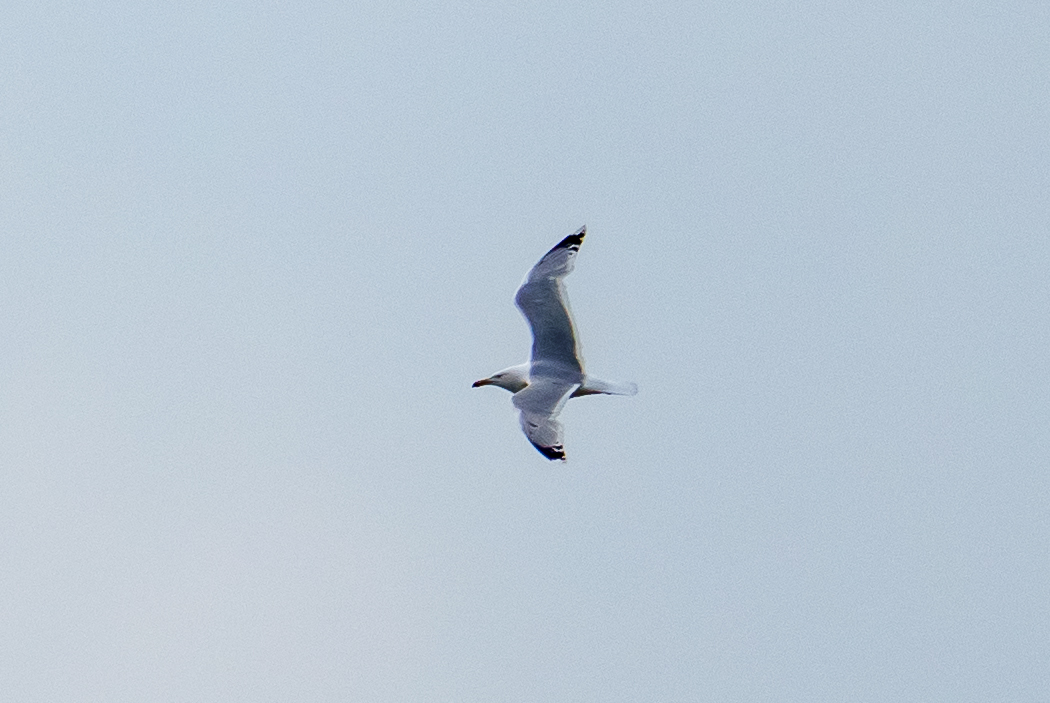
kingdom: Animalia
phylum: Chordata
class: Aves
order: Charadriiformes
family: Laridae
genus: Larus
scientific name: Larus cachinnans
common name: Caspian gull
